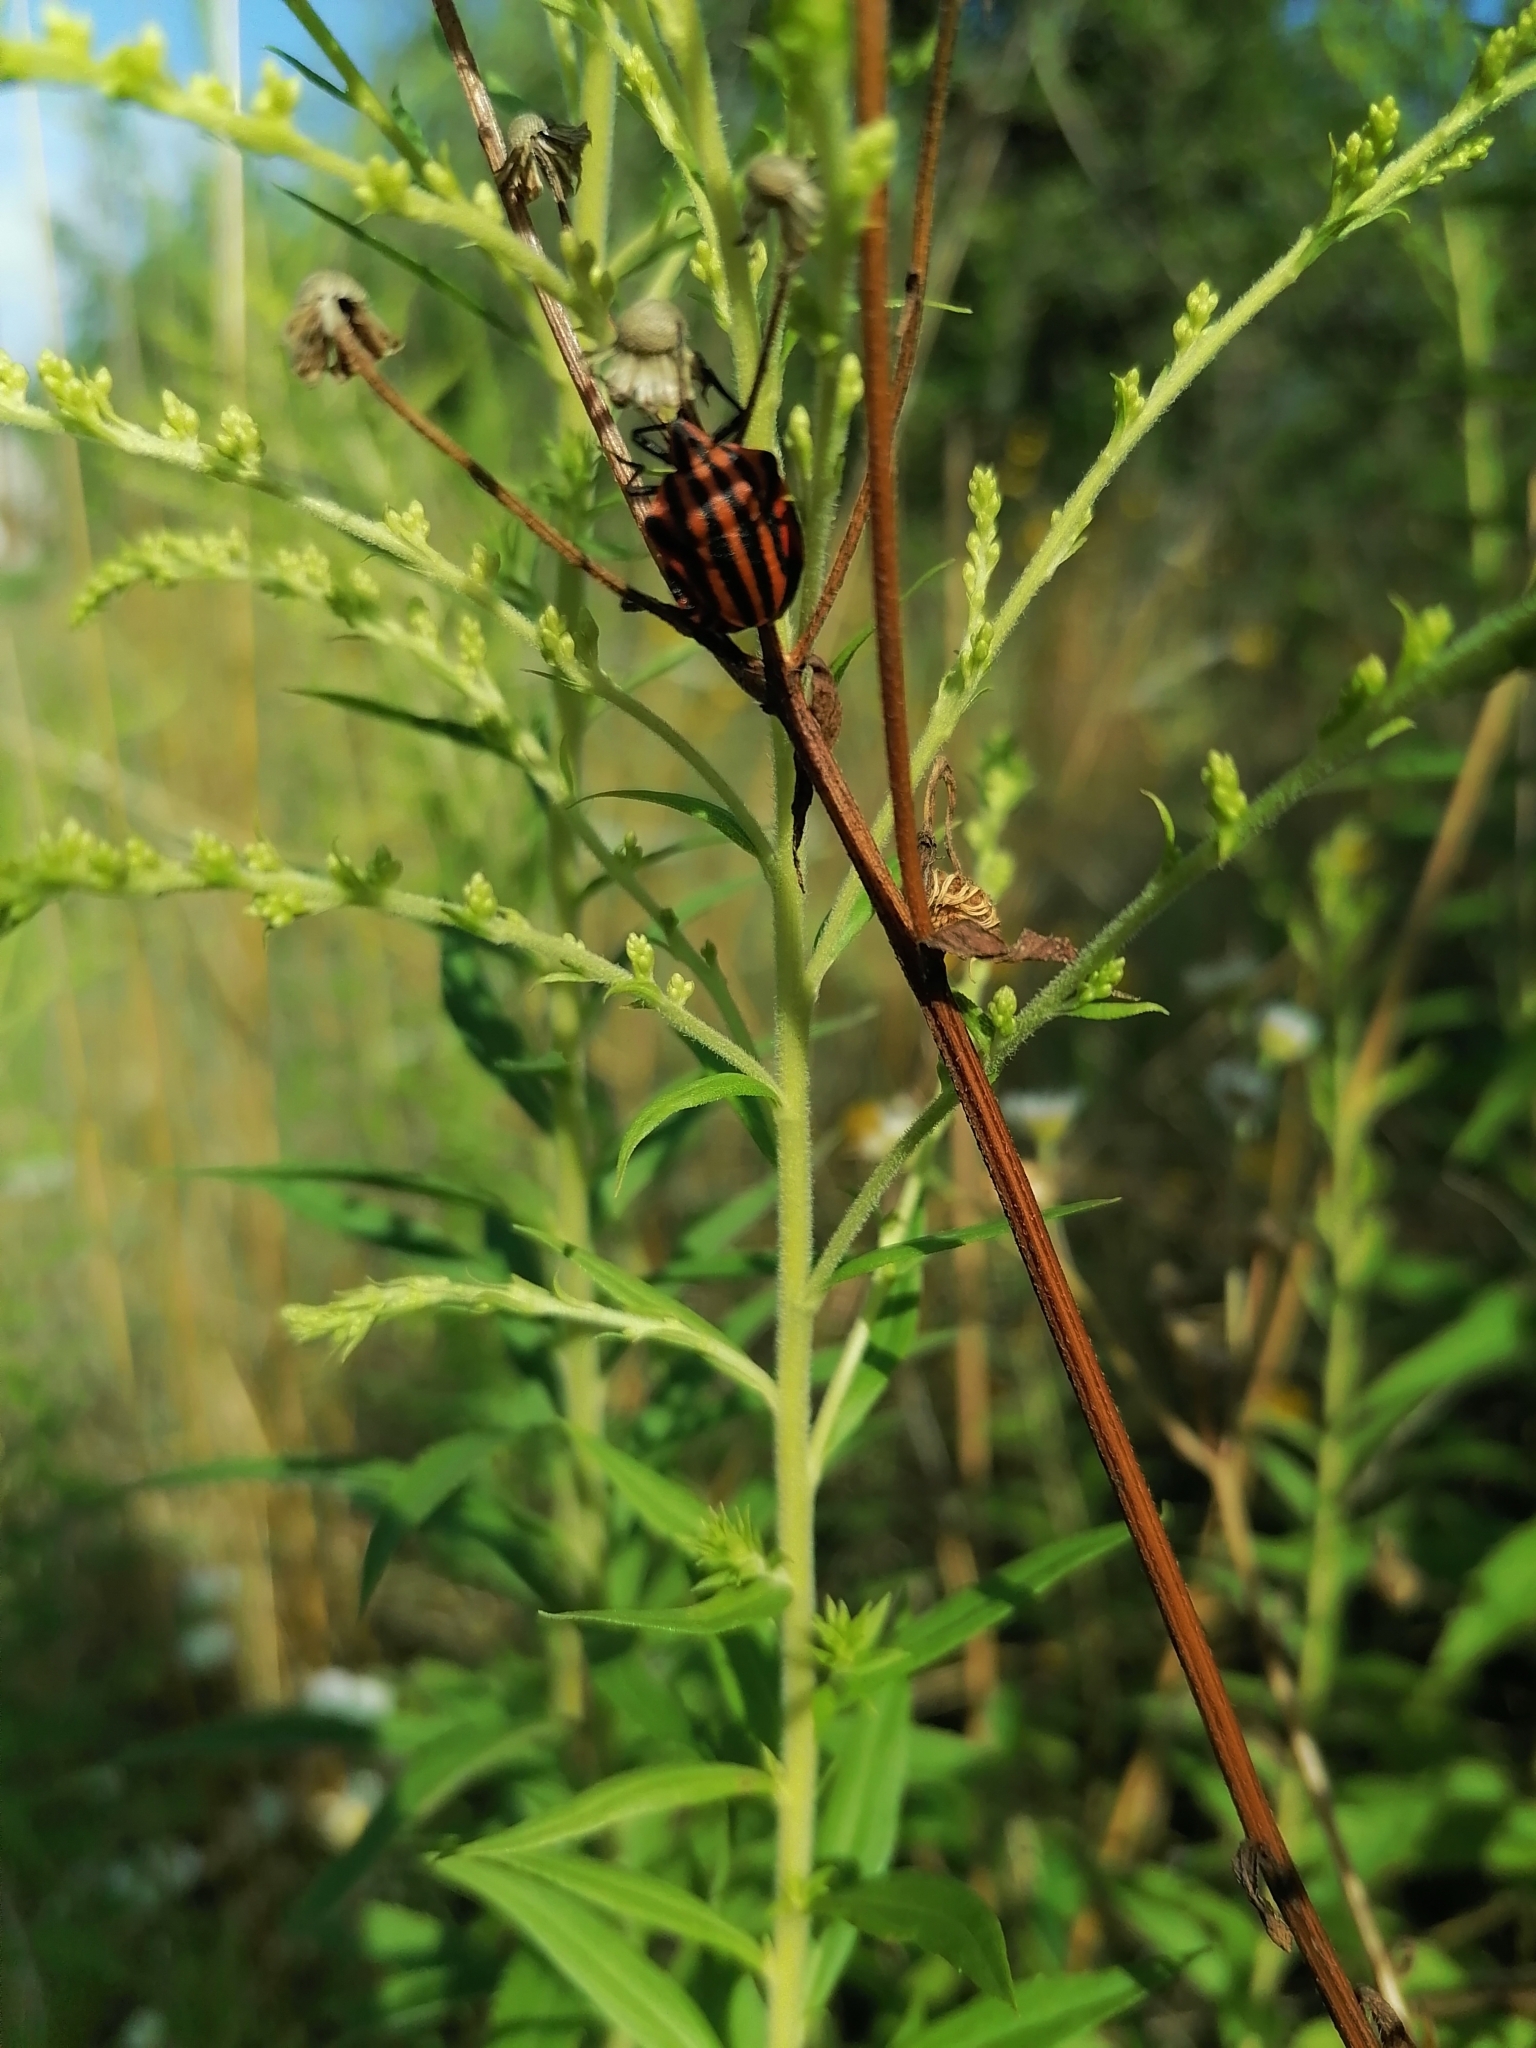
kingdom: Animalia
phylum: Arthropoda
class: Insecta
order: Hemiptera
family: Pentatomidae
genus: Graphosoma
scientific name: Graphosoma italicum
